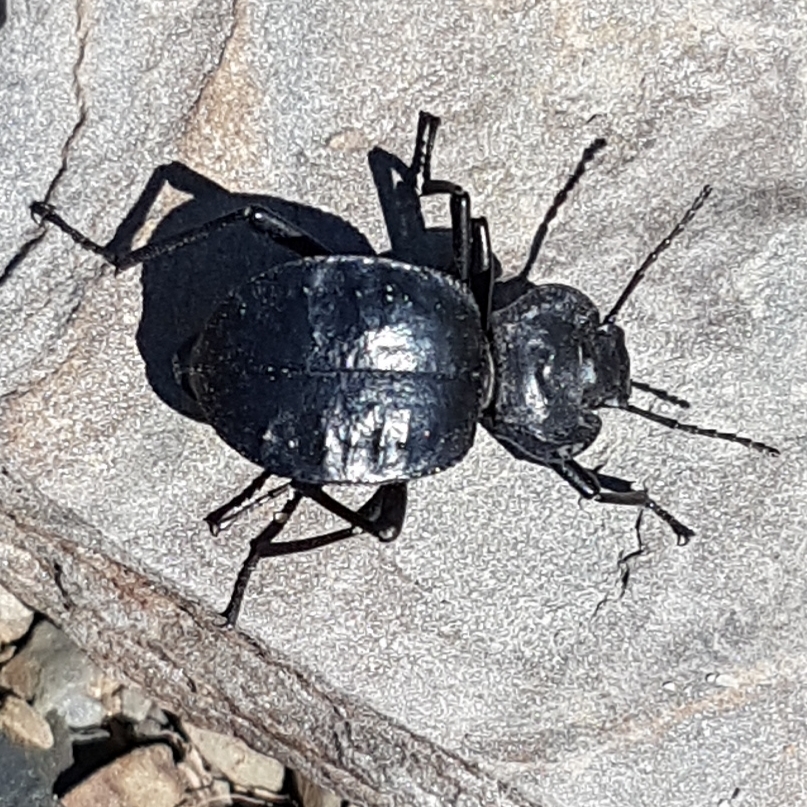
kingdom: Animalia
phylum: Arthropoda
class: Insecta
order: Coleoptera
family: Tenebrionidae
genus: Akis
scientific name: Akis bacarozzo
